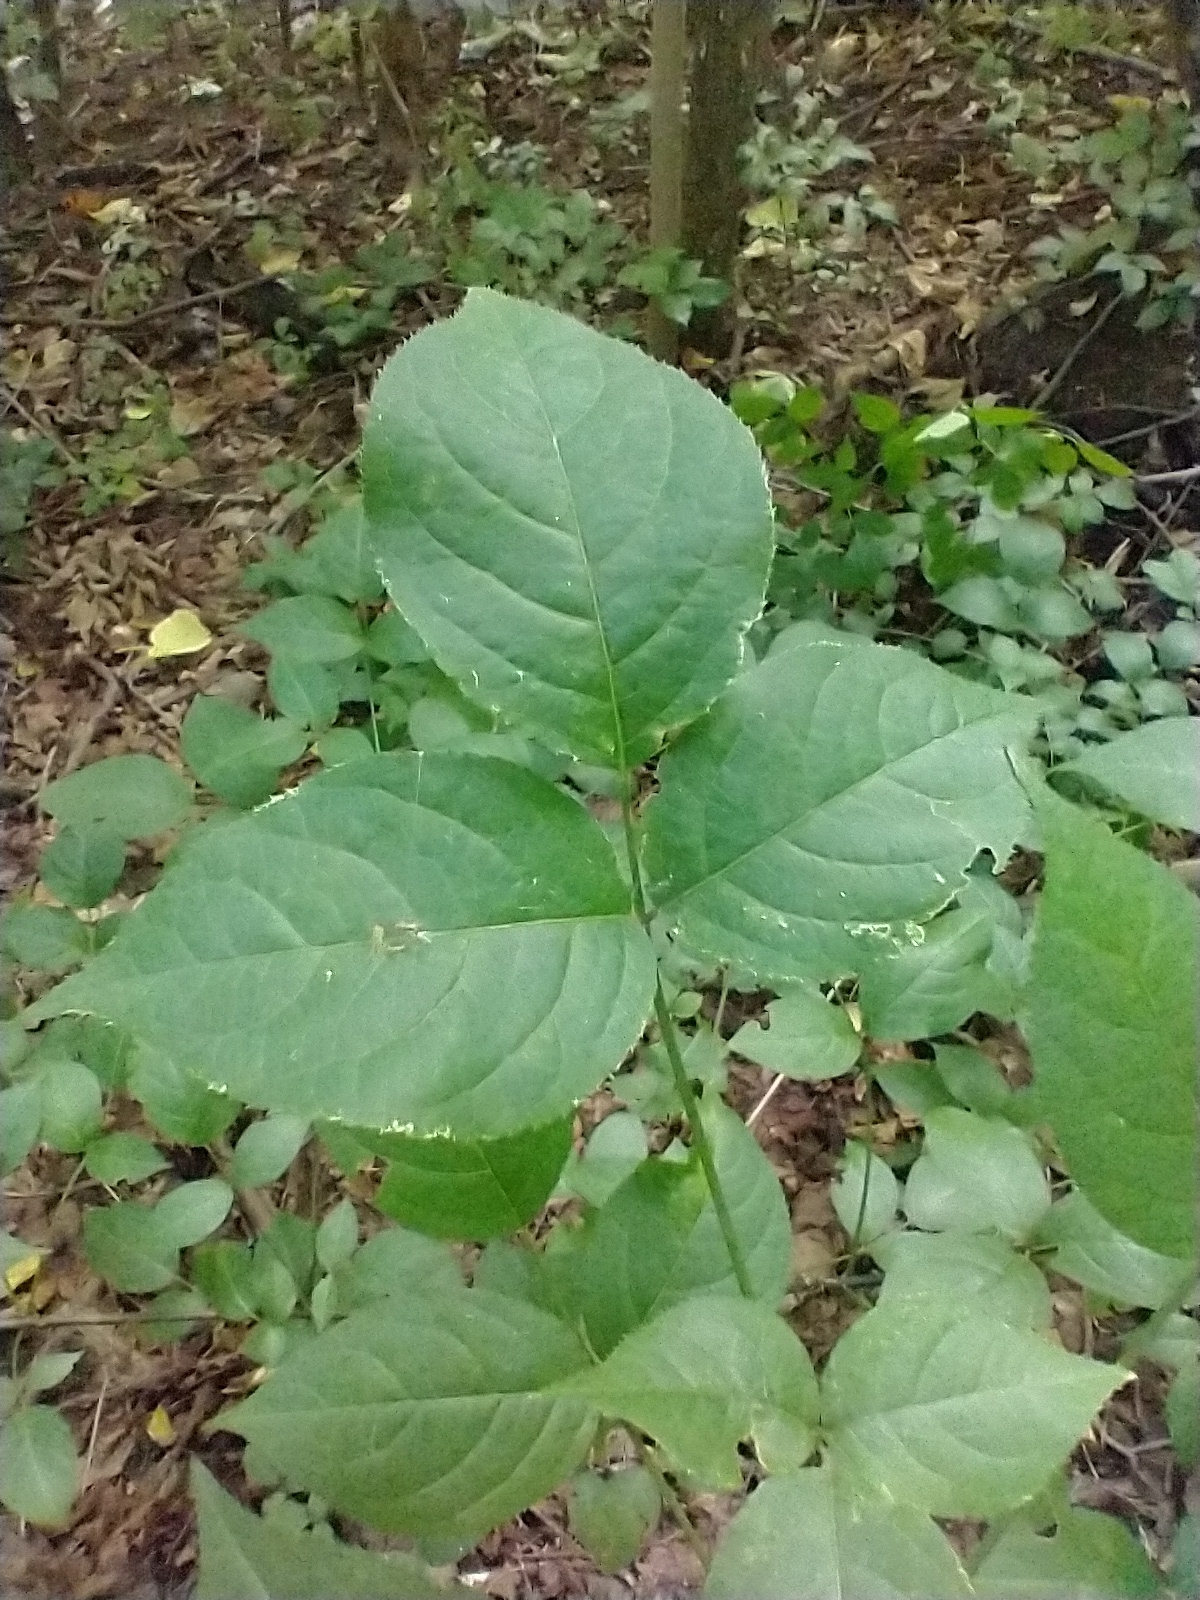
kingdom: Plantae
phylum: Tracheophyta
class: Magnoliopsida
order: Crossosomatales
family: Staphyleaceae
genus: Staphylea
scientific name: Staphylea trifolia
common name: American bladdernut
